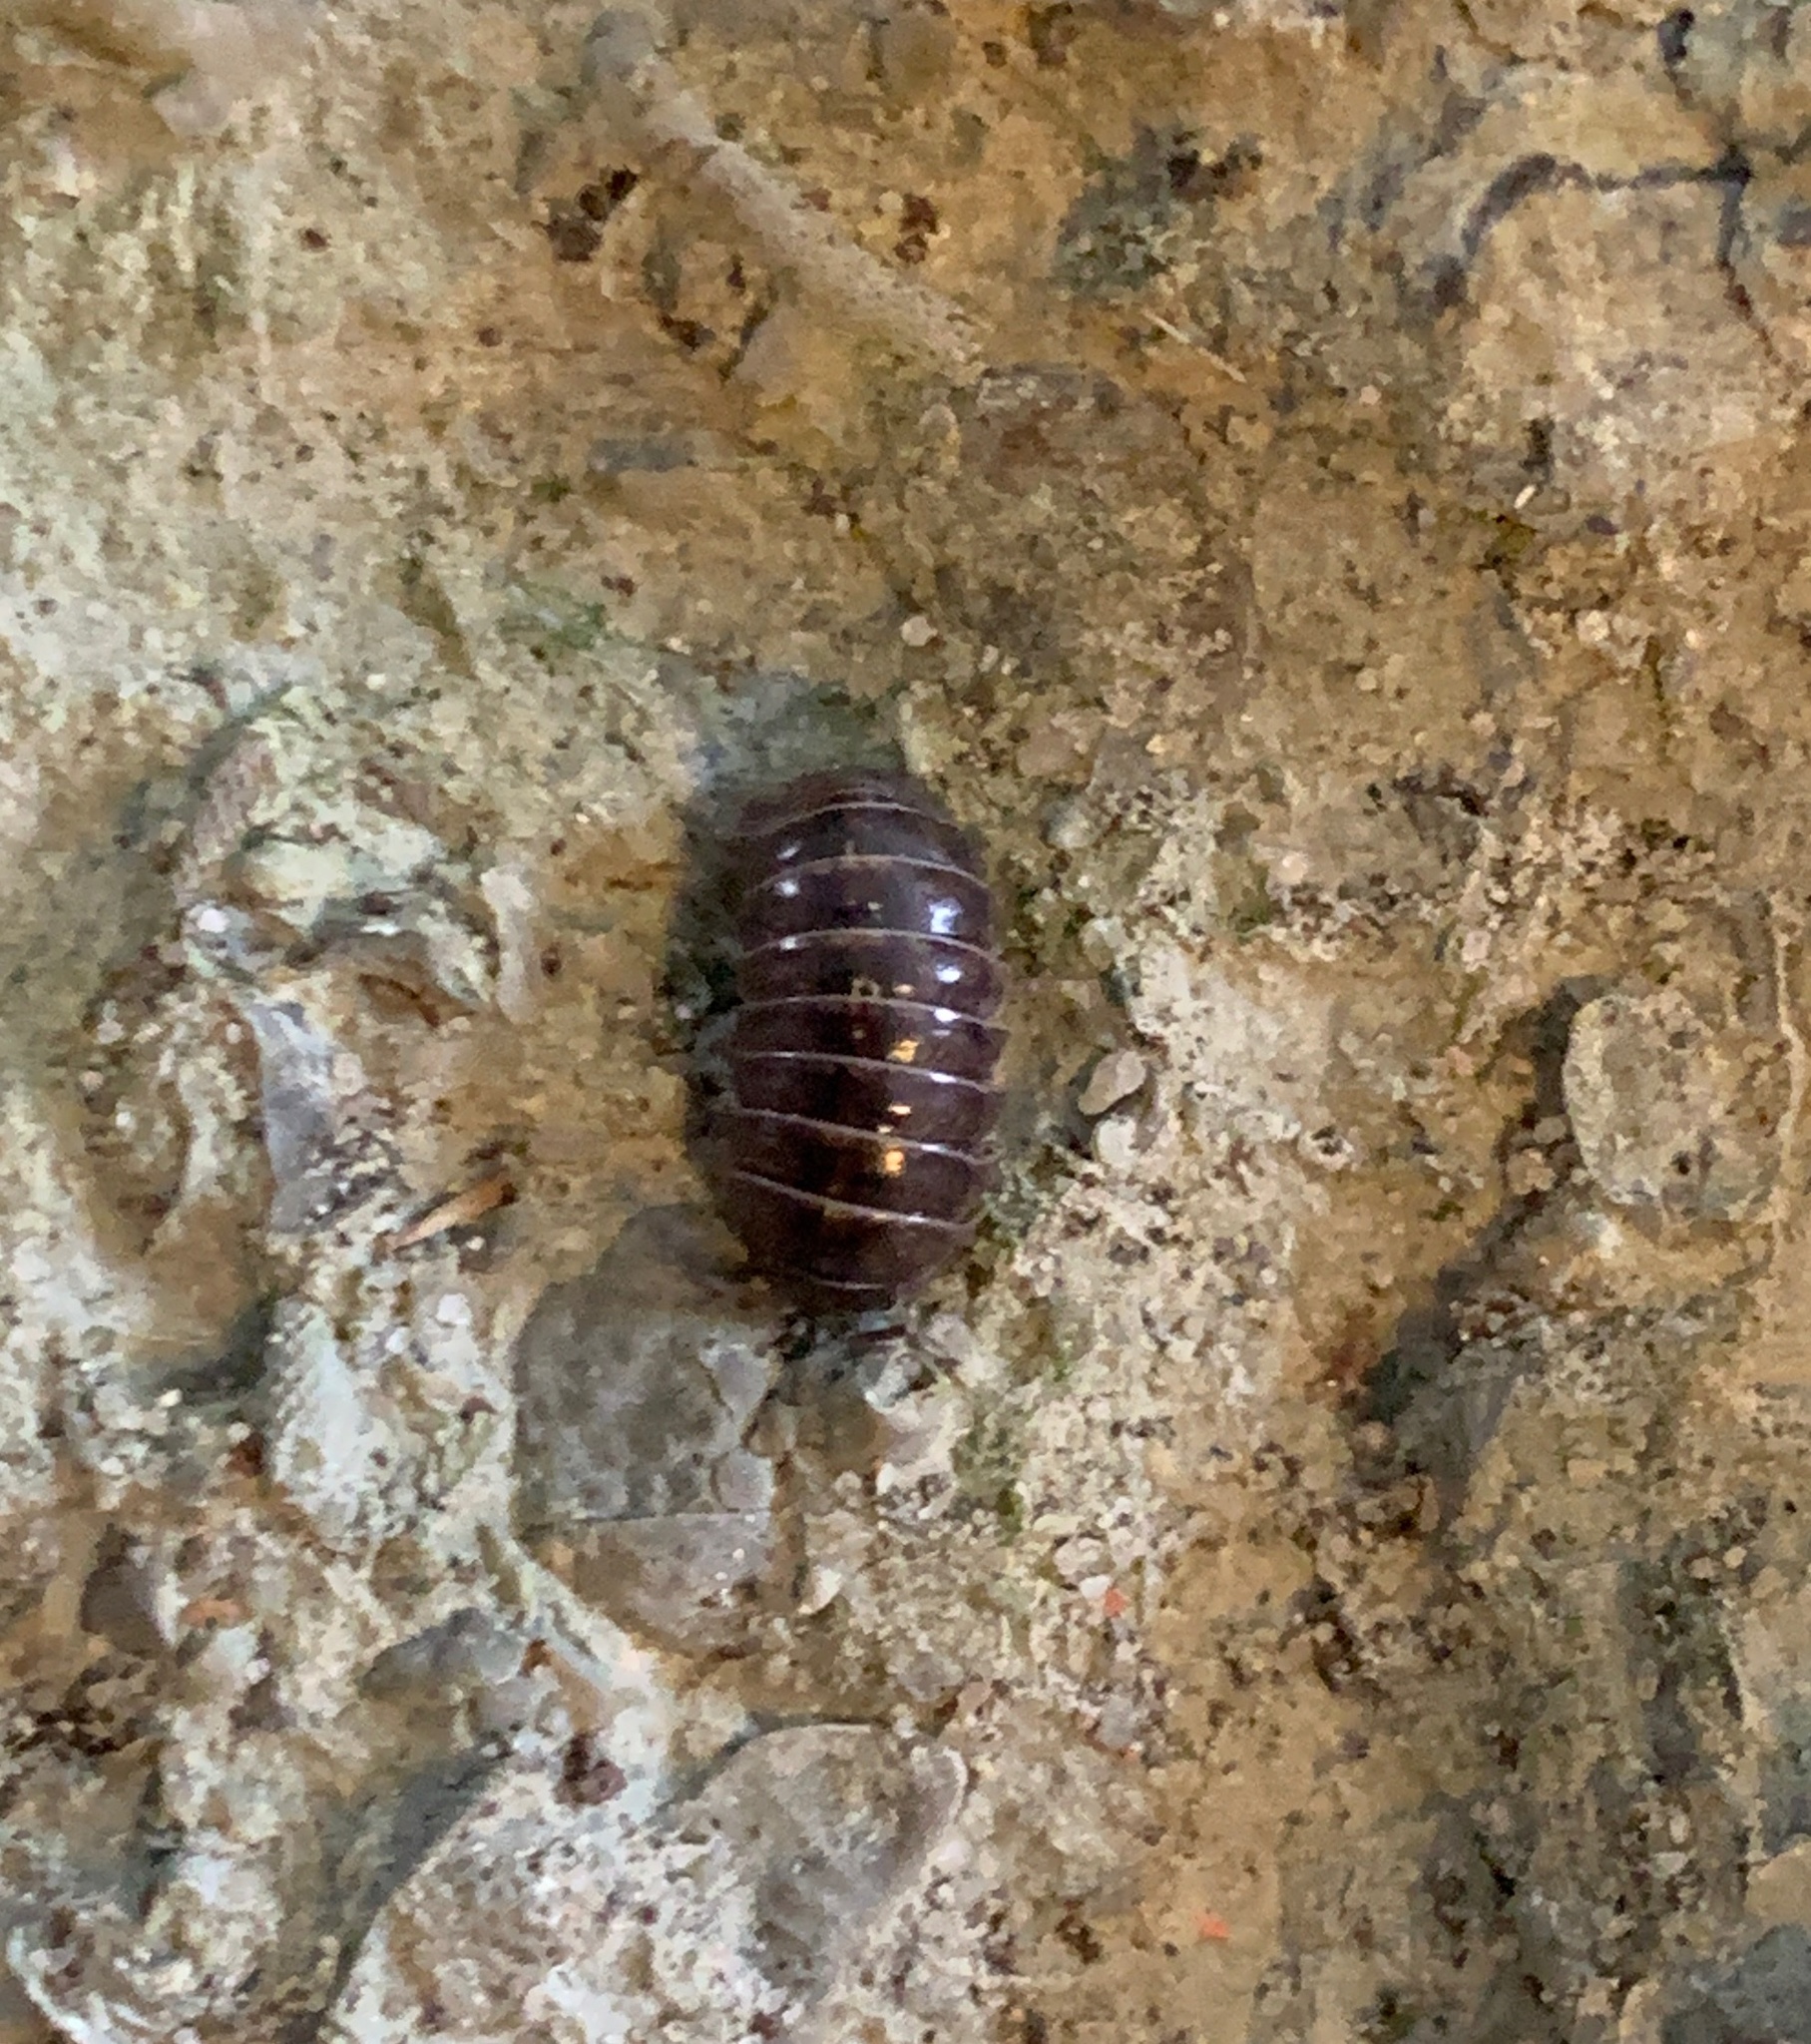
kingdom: Animalia
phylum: Arthropoda
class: Malacostraca
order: Isopoda
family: Armadillidiidae
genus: Armadillidium
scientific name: Armadillidium vulgare
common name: Common pill woodlouse
